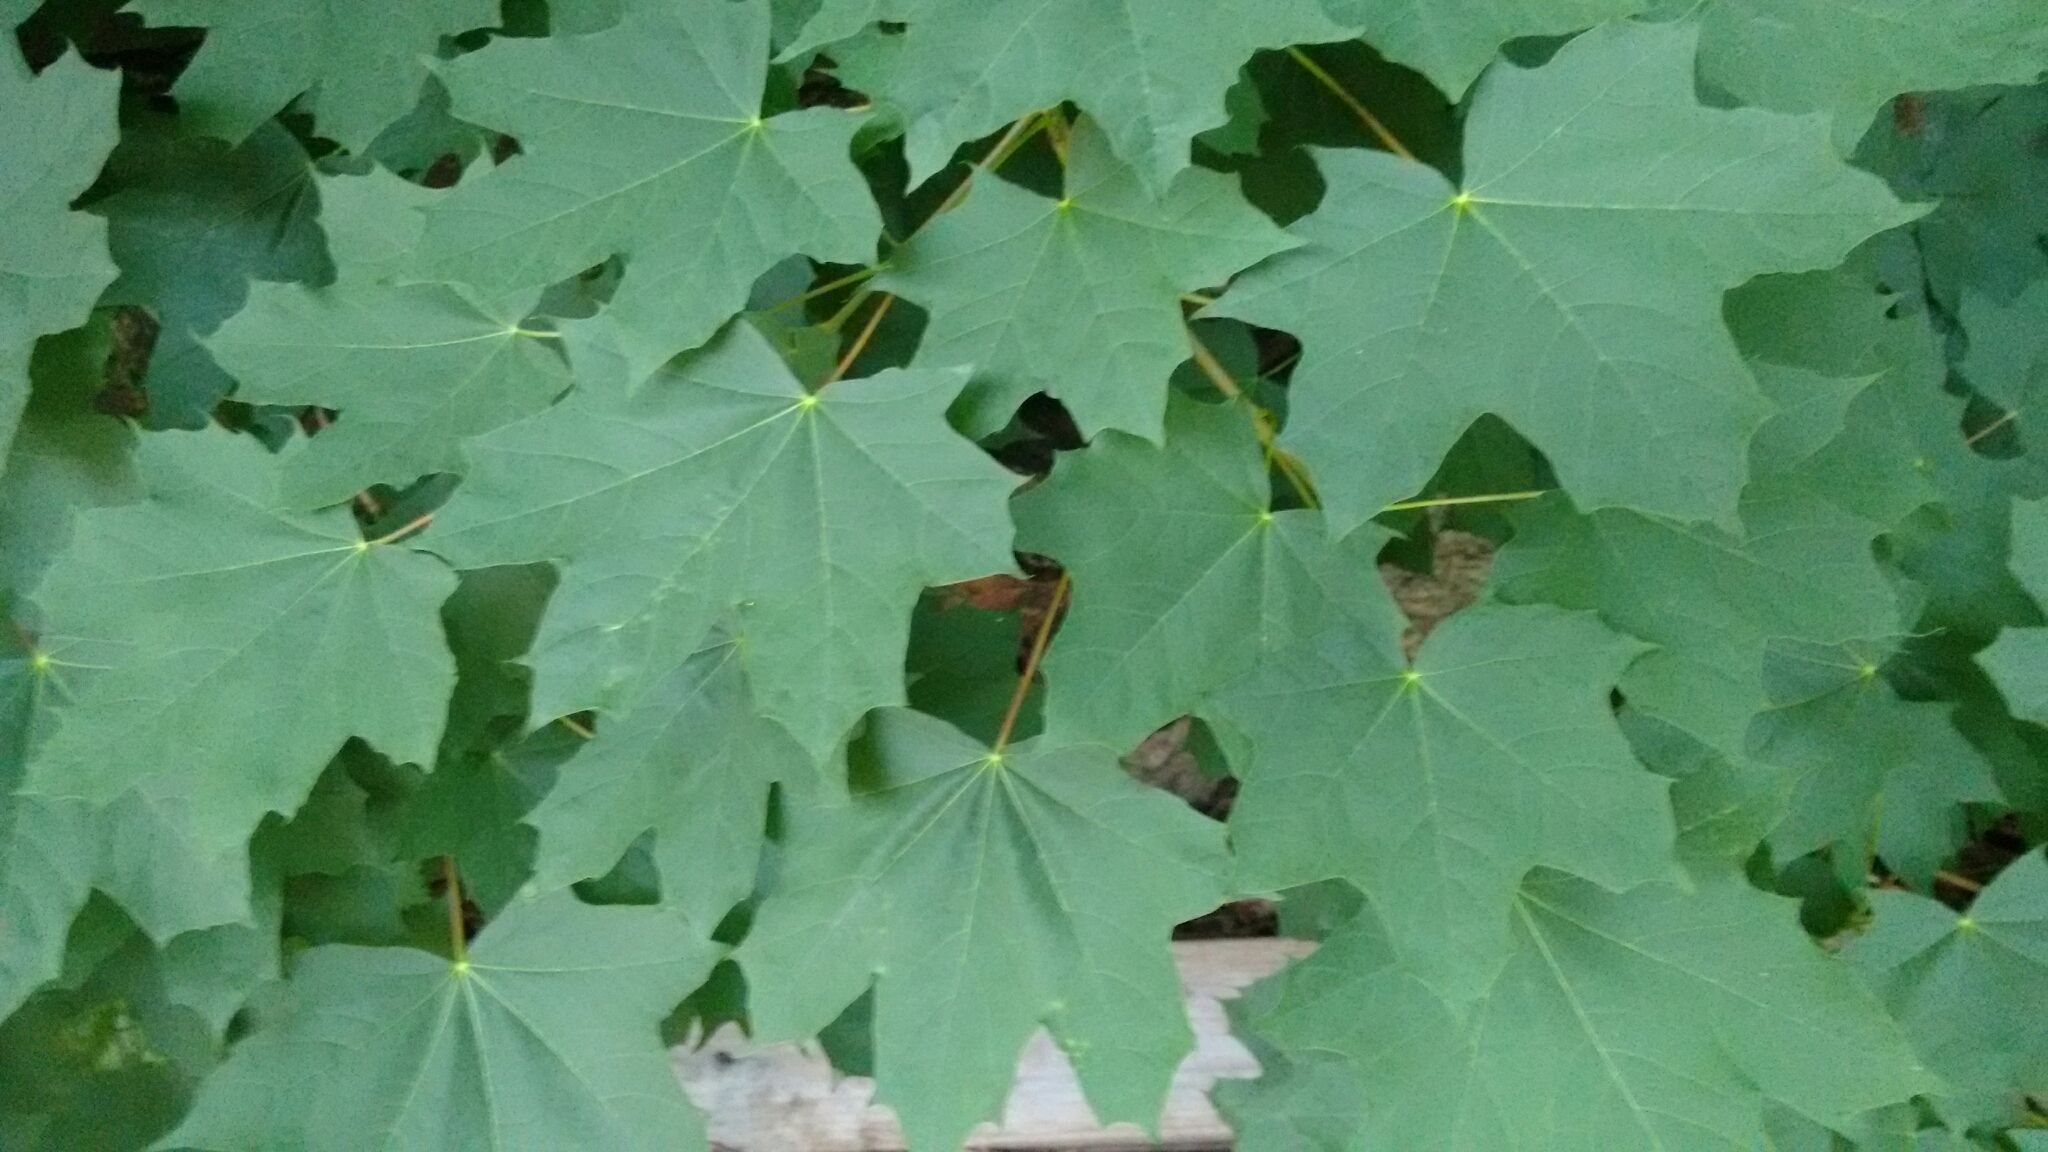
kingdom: Plantae
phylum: Tracheophyta
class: Magnoliopsida
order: Sapindales
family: Sapindaceae
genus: Acer
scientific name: Acer platanoides
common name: Norway maple
